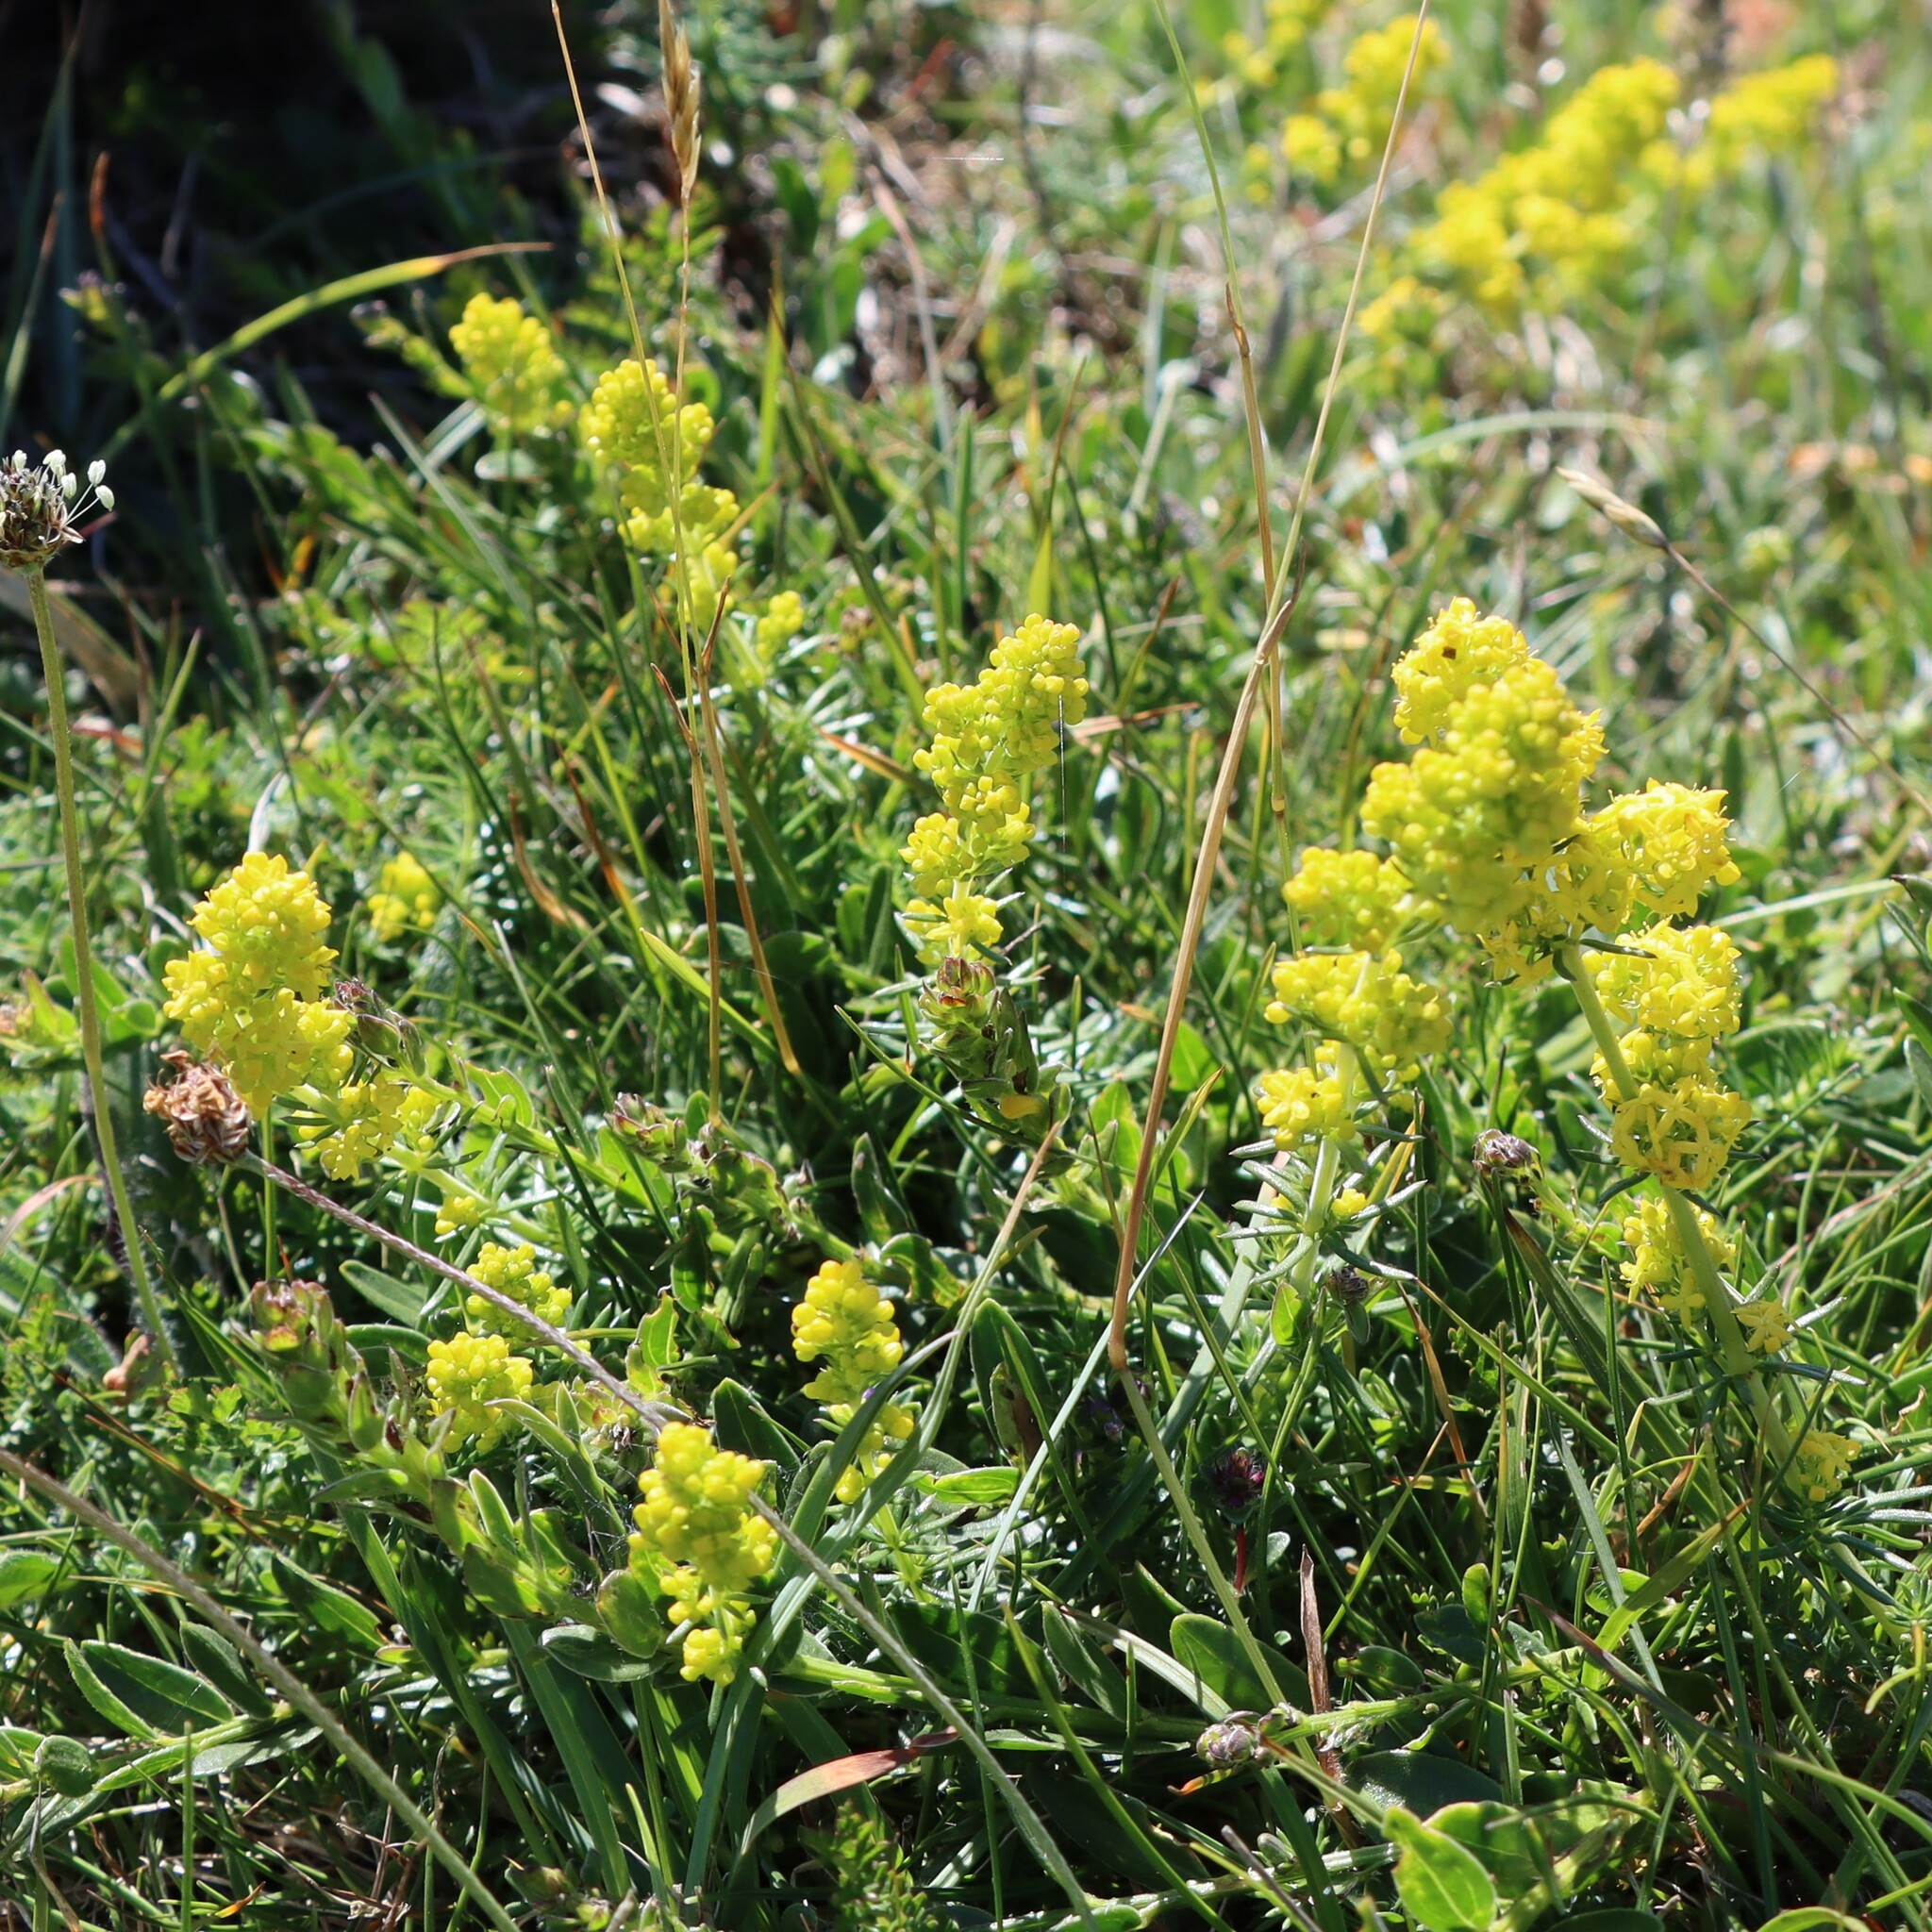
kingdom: Plantae
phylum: Tracheophyta
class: Magnoliopsida
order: Gentianales
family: Rubiaceae
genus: Galium
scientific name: Galium verum
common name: Lady's bedstraw
